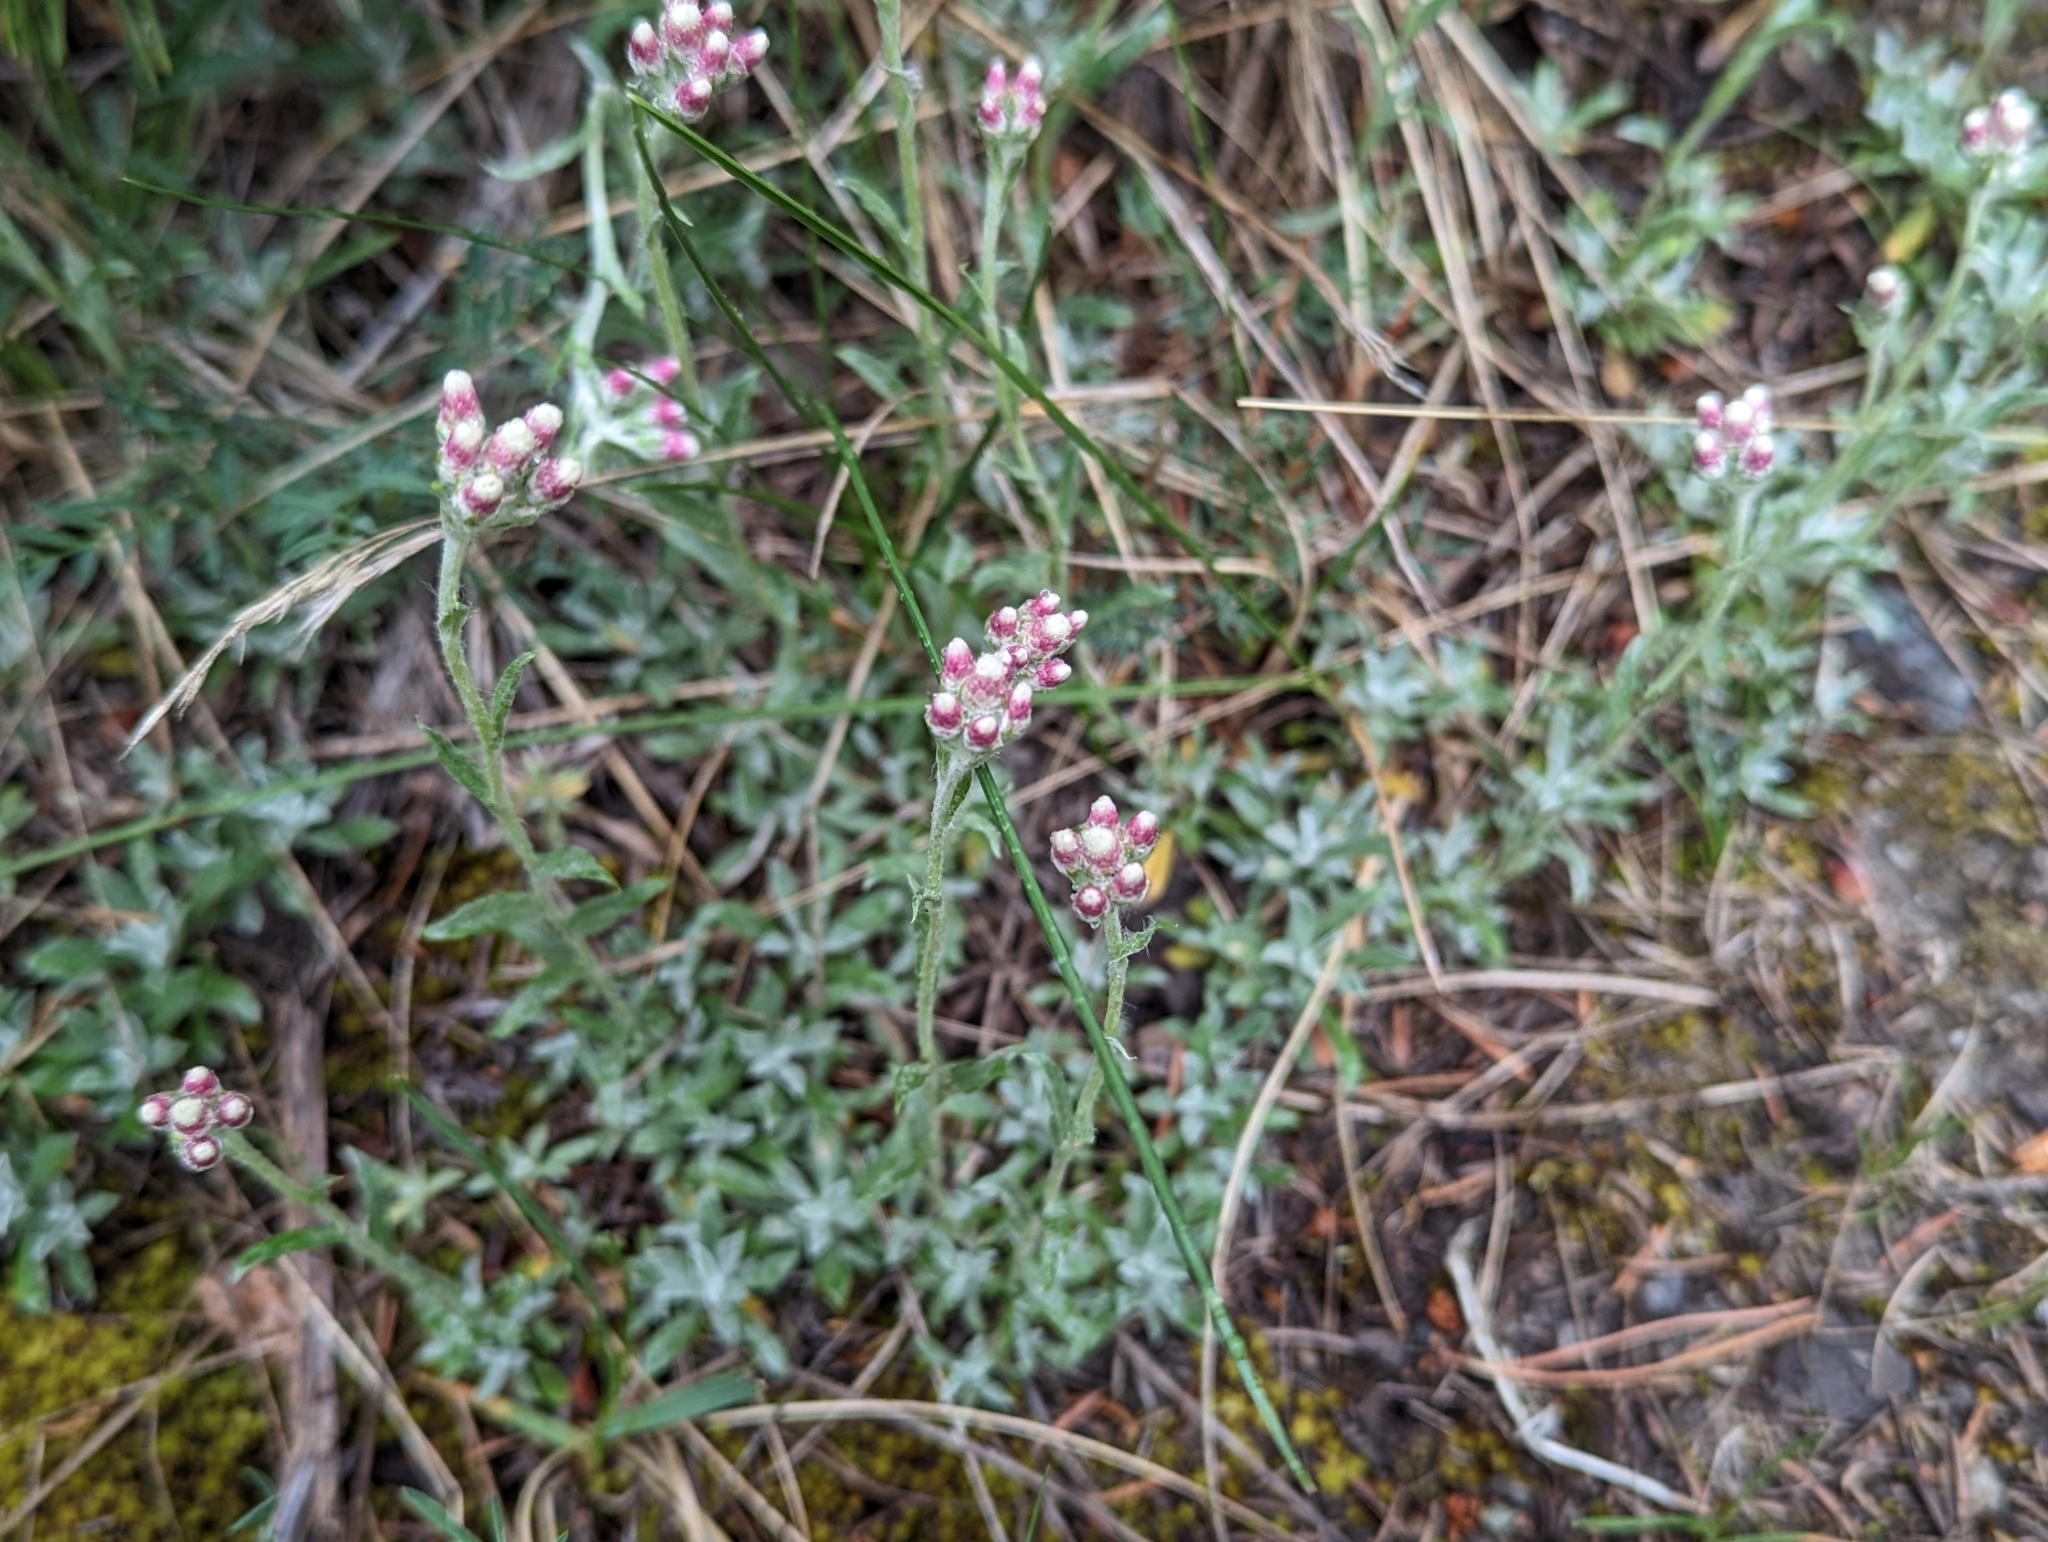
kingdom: Plantae
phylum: Tracheophyta
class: Magnoliopsida
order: Asterales
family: Asteraceae
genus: Antennaria
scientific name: Antennaria rosea
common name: Rosy pussytoes
